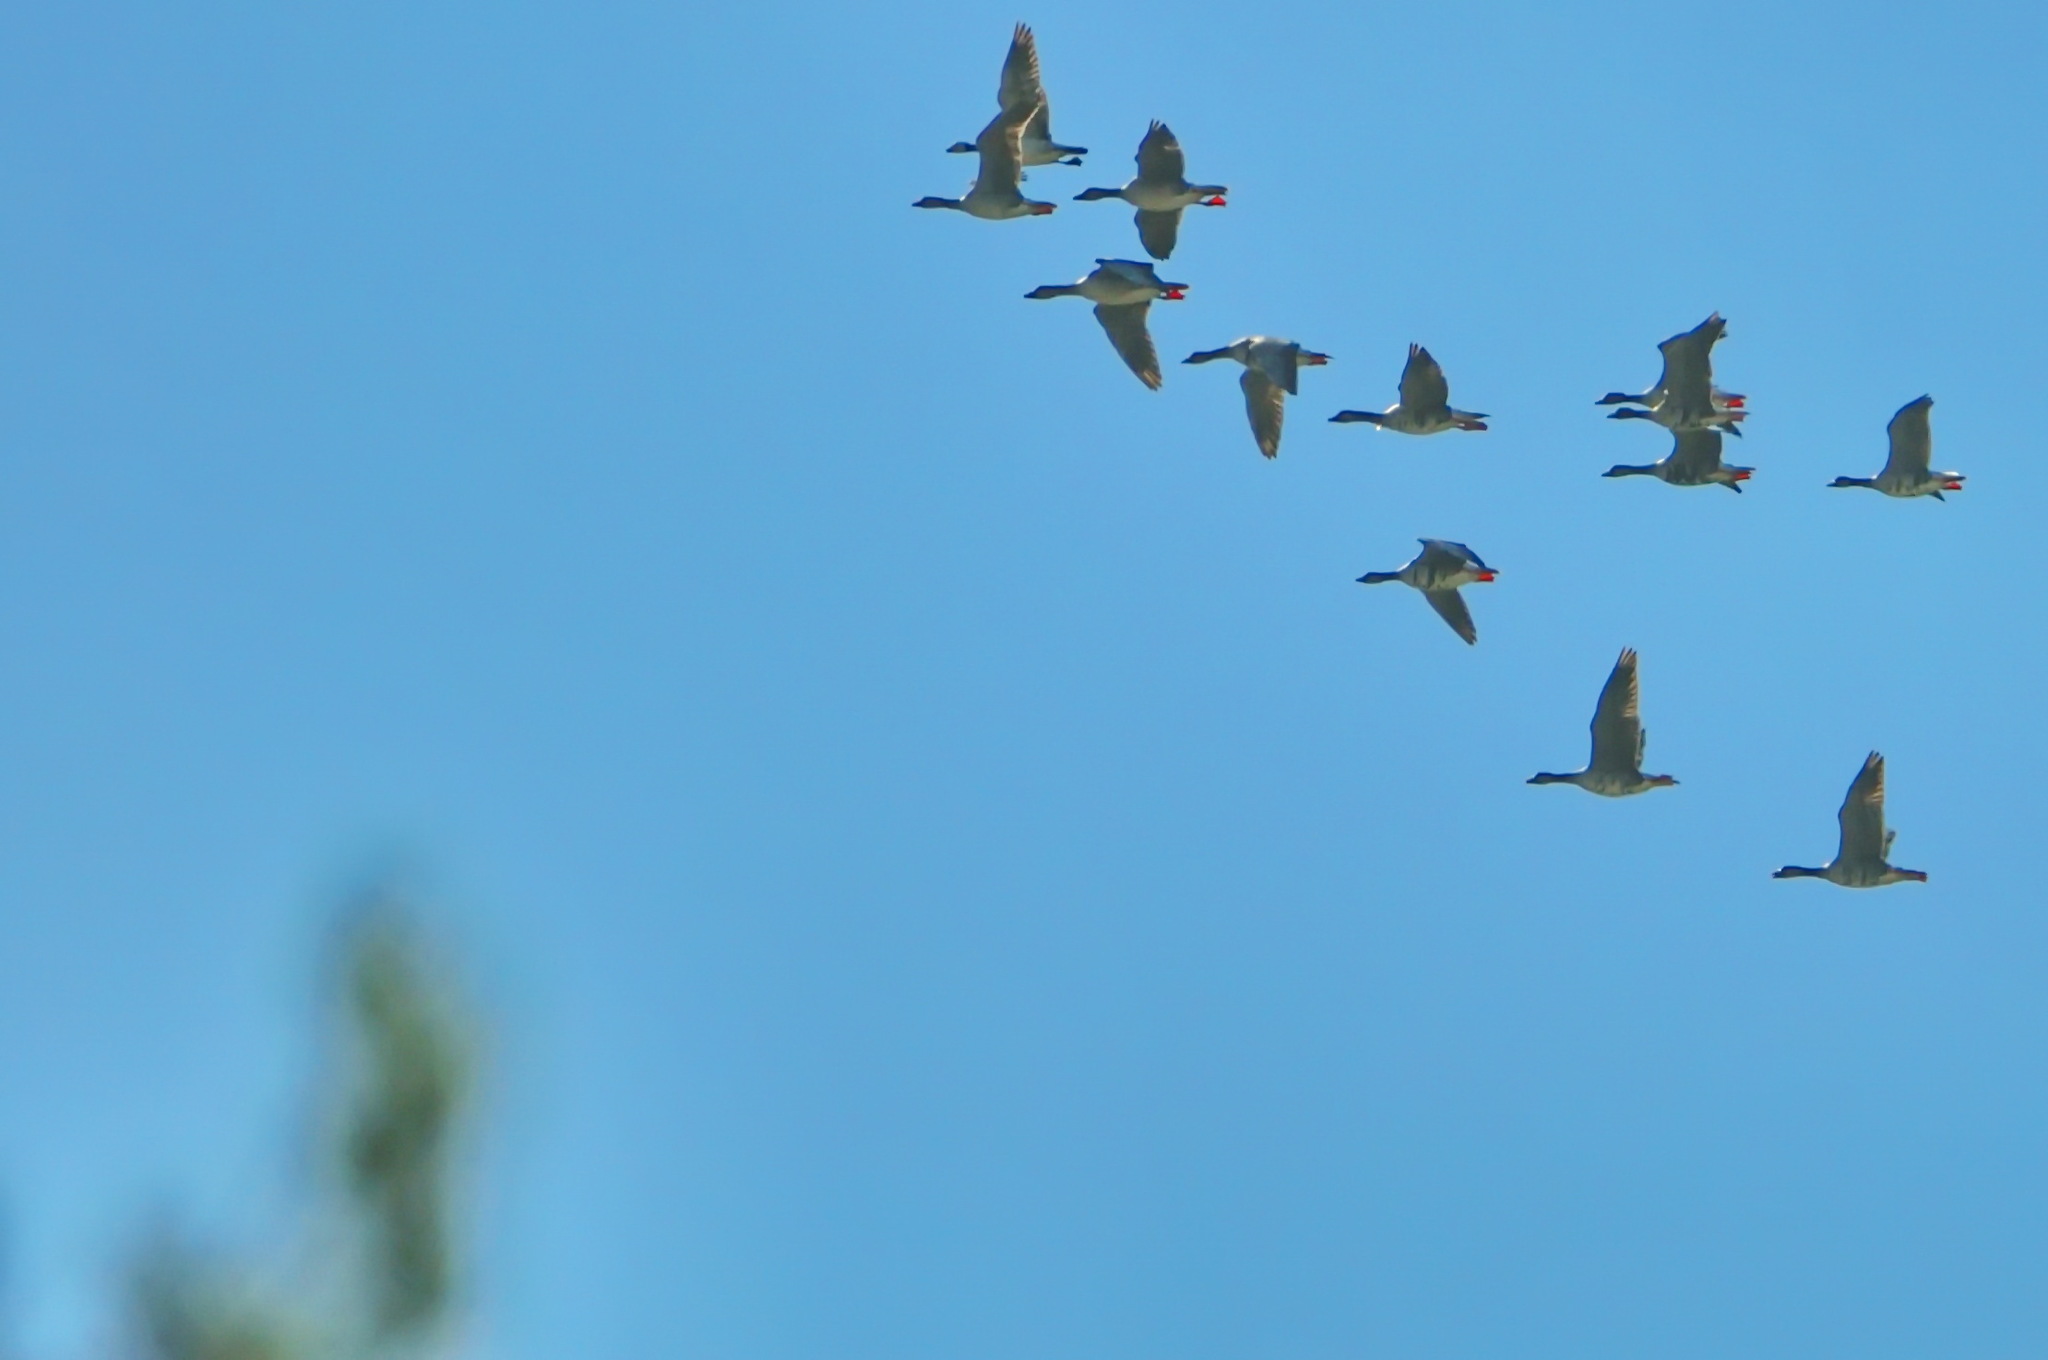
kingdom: Animalia
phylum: Chordata
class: Aves
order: Anseriformes
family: Anatidae
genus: Anser
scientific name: Anser albifrons
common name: Greater white-fronted goose
